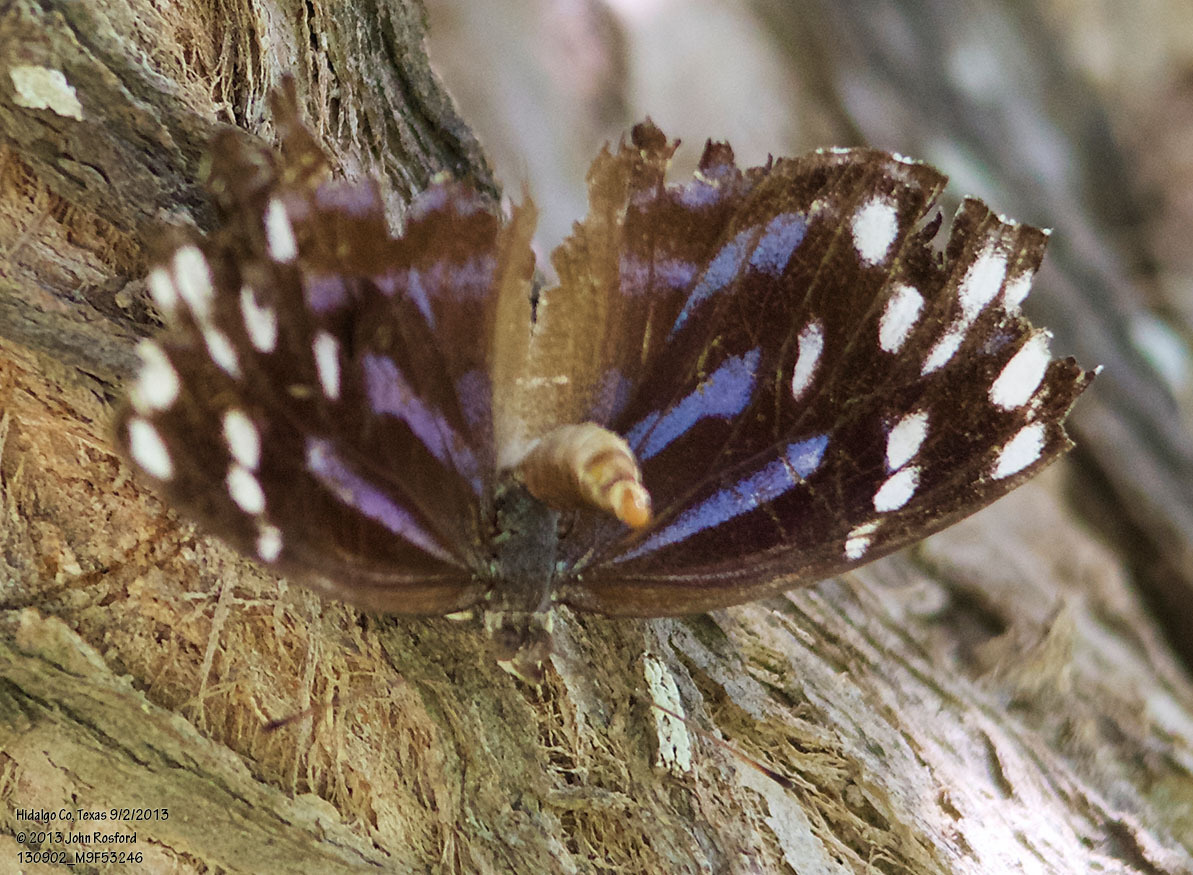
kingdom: Animalia
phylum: Arthropoda
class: Insecta
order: Lepidoptera
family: Nymphalidae
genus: Myscelia
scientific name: Myscelia ethusa
